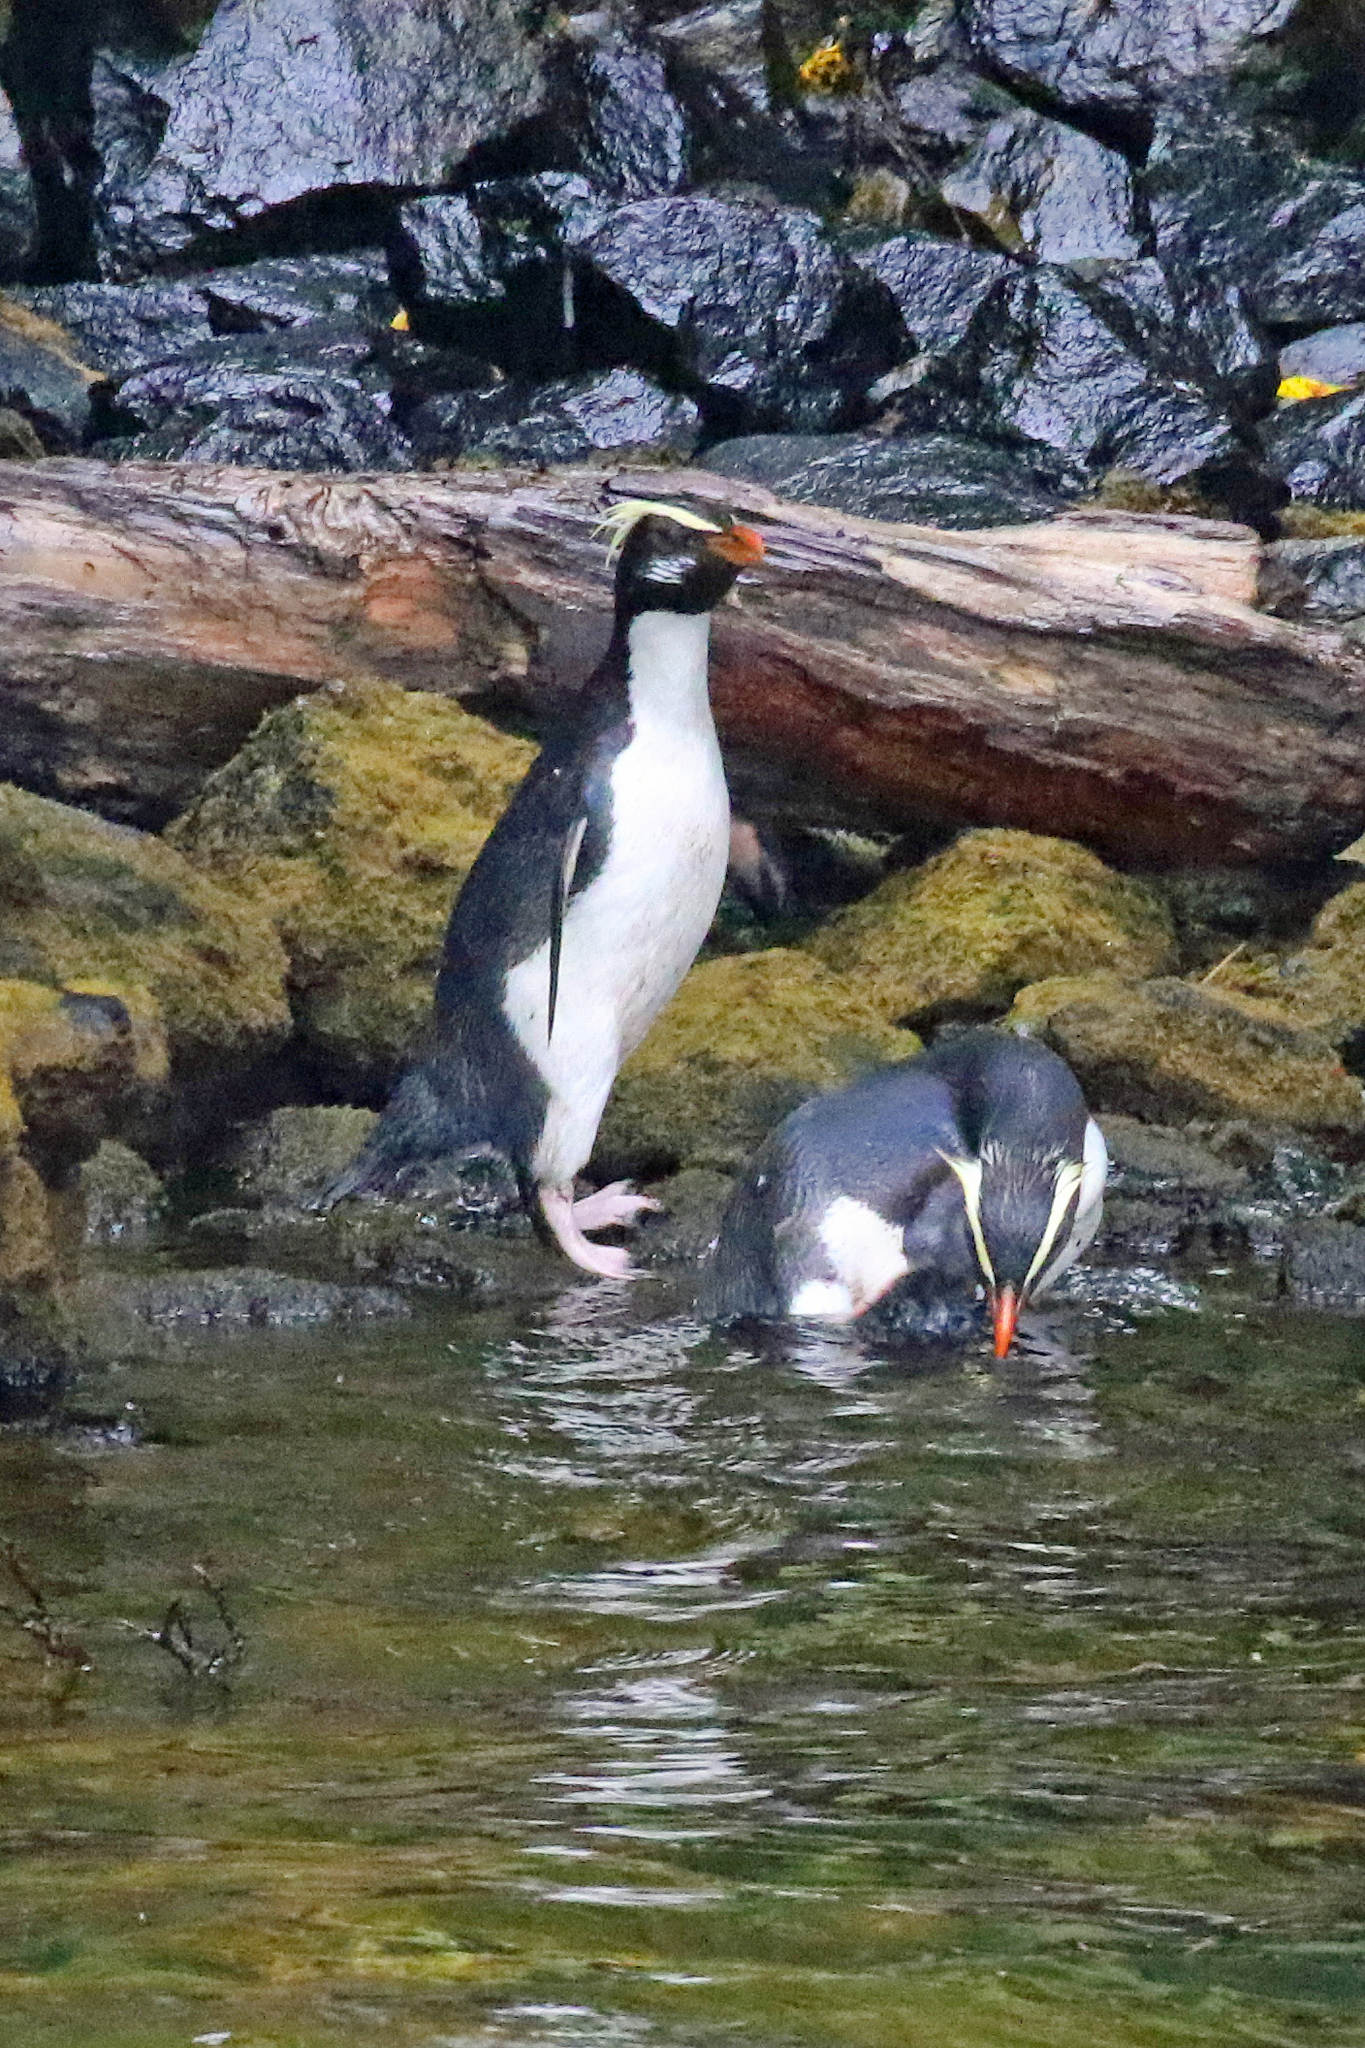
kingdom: Animalia
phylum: Chordata
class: Aves
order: Sphenisciformes
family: Spheniscidae
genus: Eudyptes
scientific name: Eudyptes pachyrhynchus
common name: Fiordland penguin
